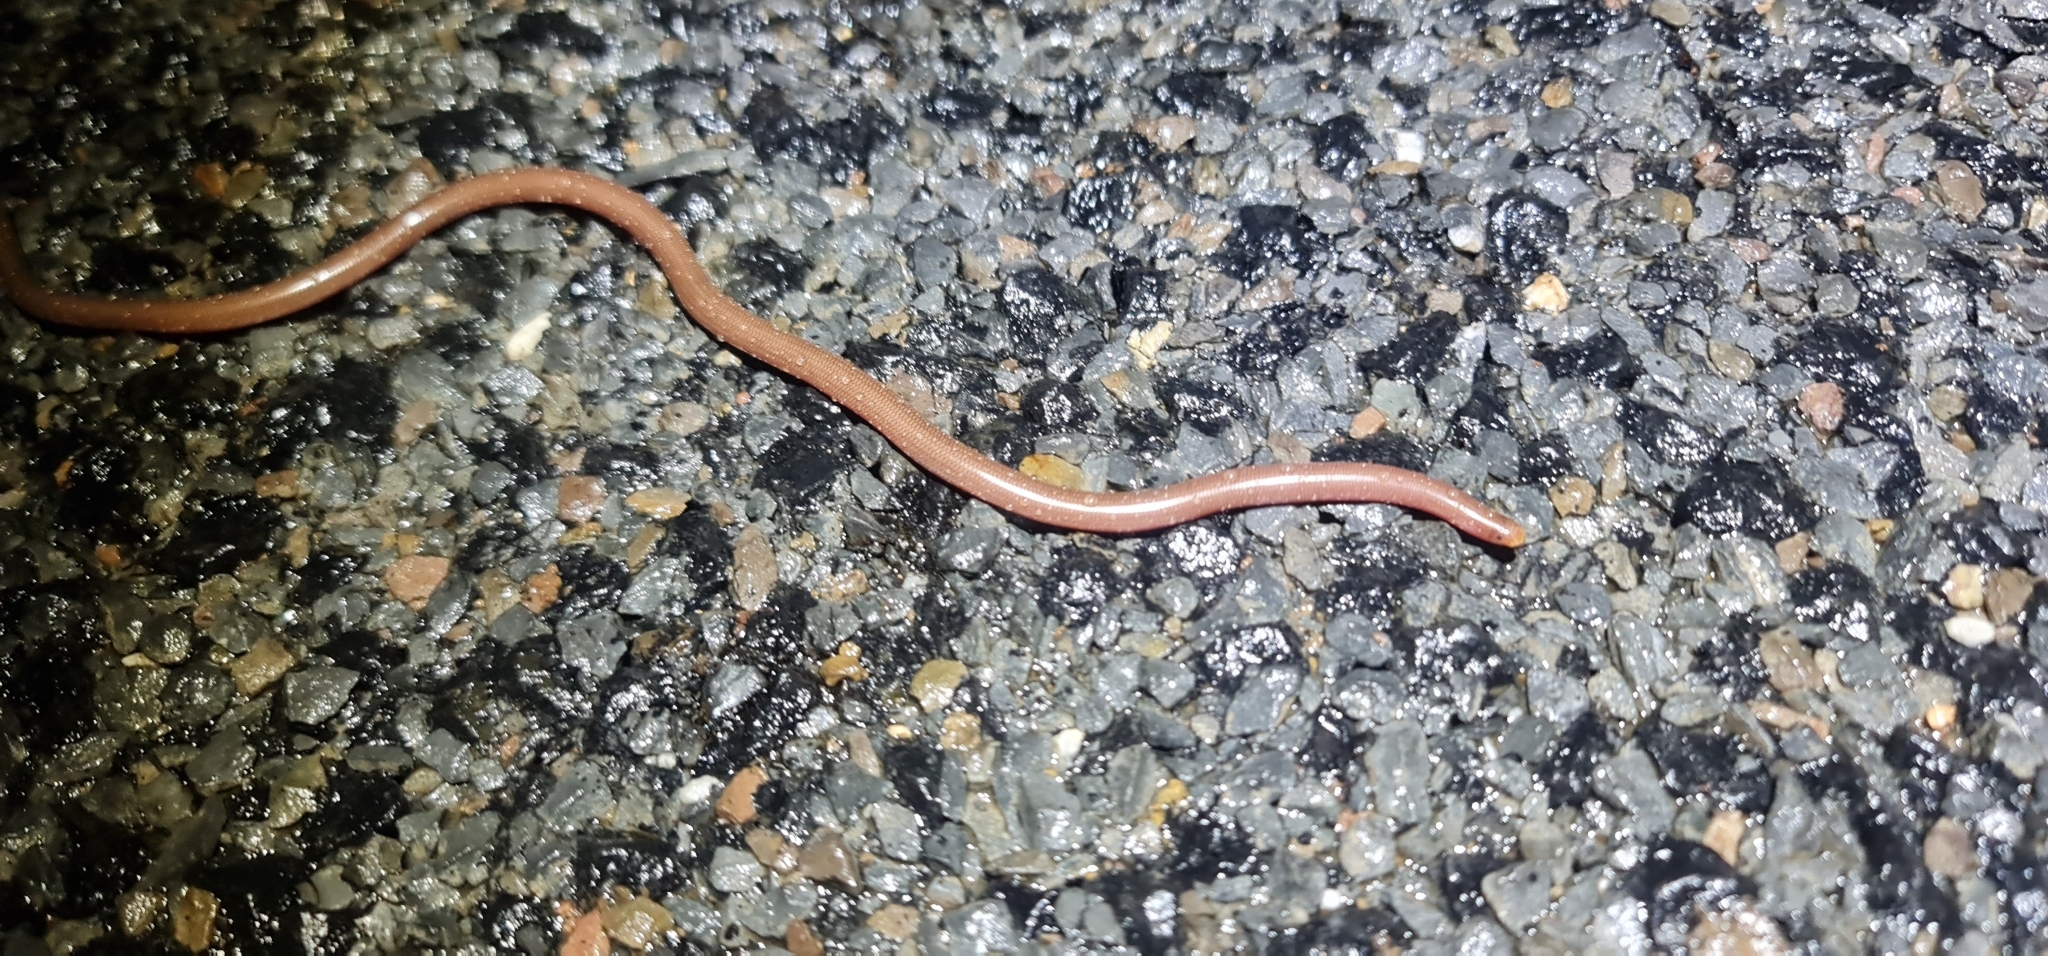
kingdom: Animalia
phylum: Chordata
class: Squamata
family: Typhlopidae
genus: Anilios
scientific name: Anilios bituberculatus
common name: Prong-snouted blind snake
